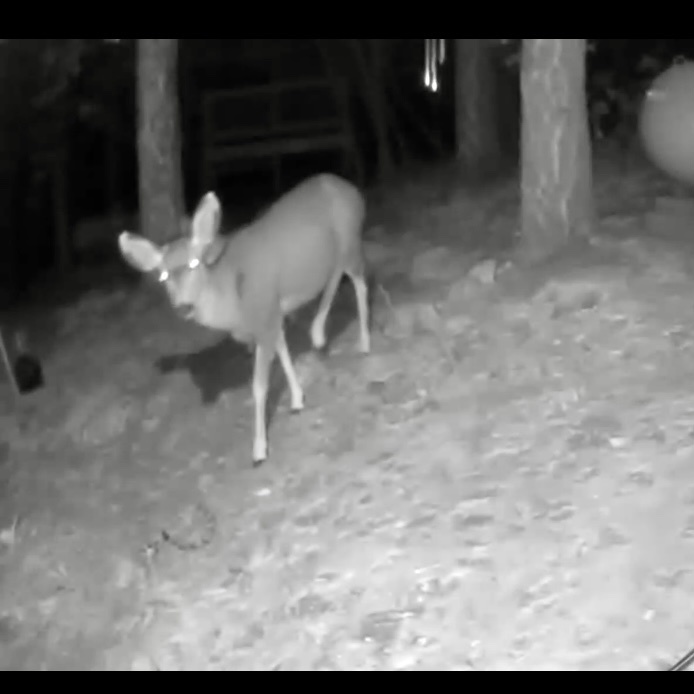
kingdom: Animalia
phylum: Chordata
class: Mammalia
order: Artiodactyla
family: Cervidae
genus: Odocoileus
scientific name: Odocoileus hemionus
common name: Mule deer
